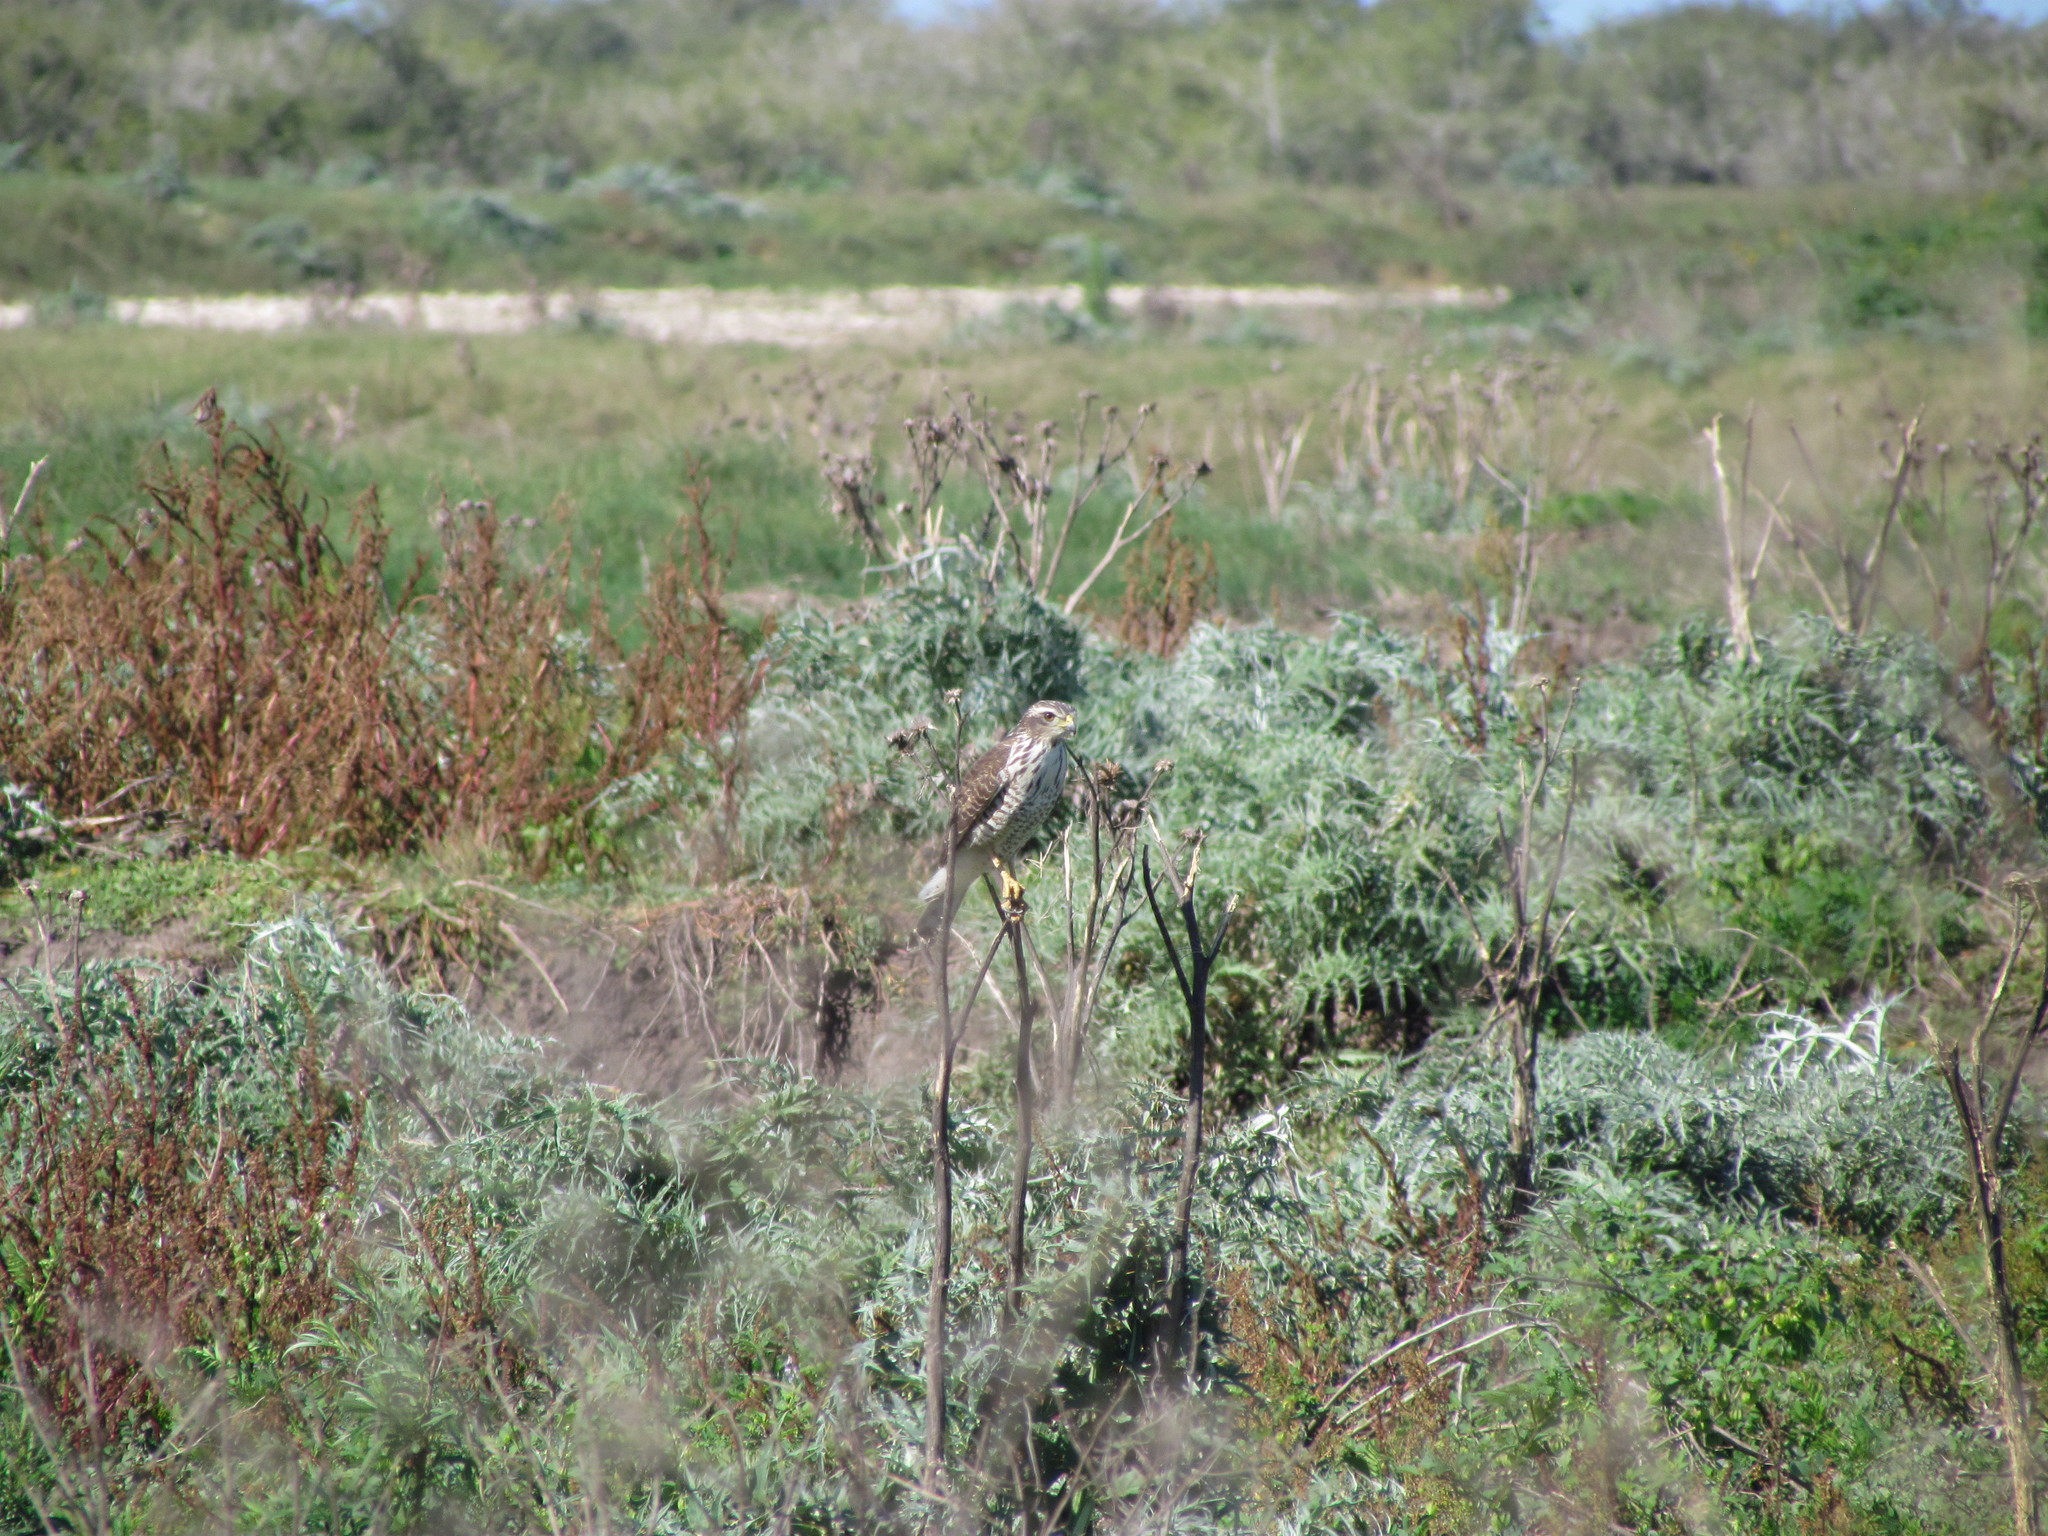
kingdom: Animalia
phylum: Chordata
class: Aves
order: Accipitriformes
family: Accipitridae
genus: Rupornis
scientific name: Rupornis magnirostris
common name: Roadside hawk
